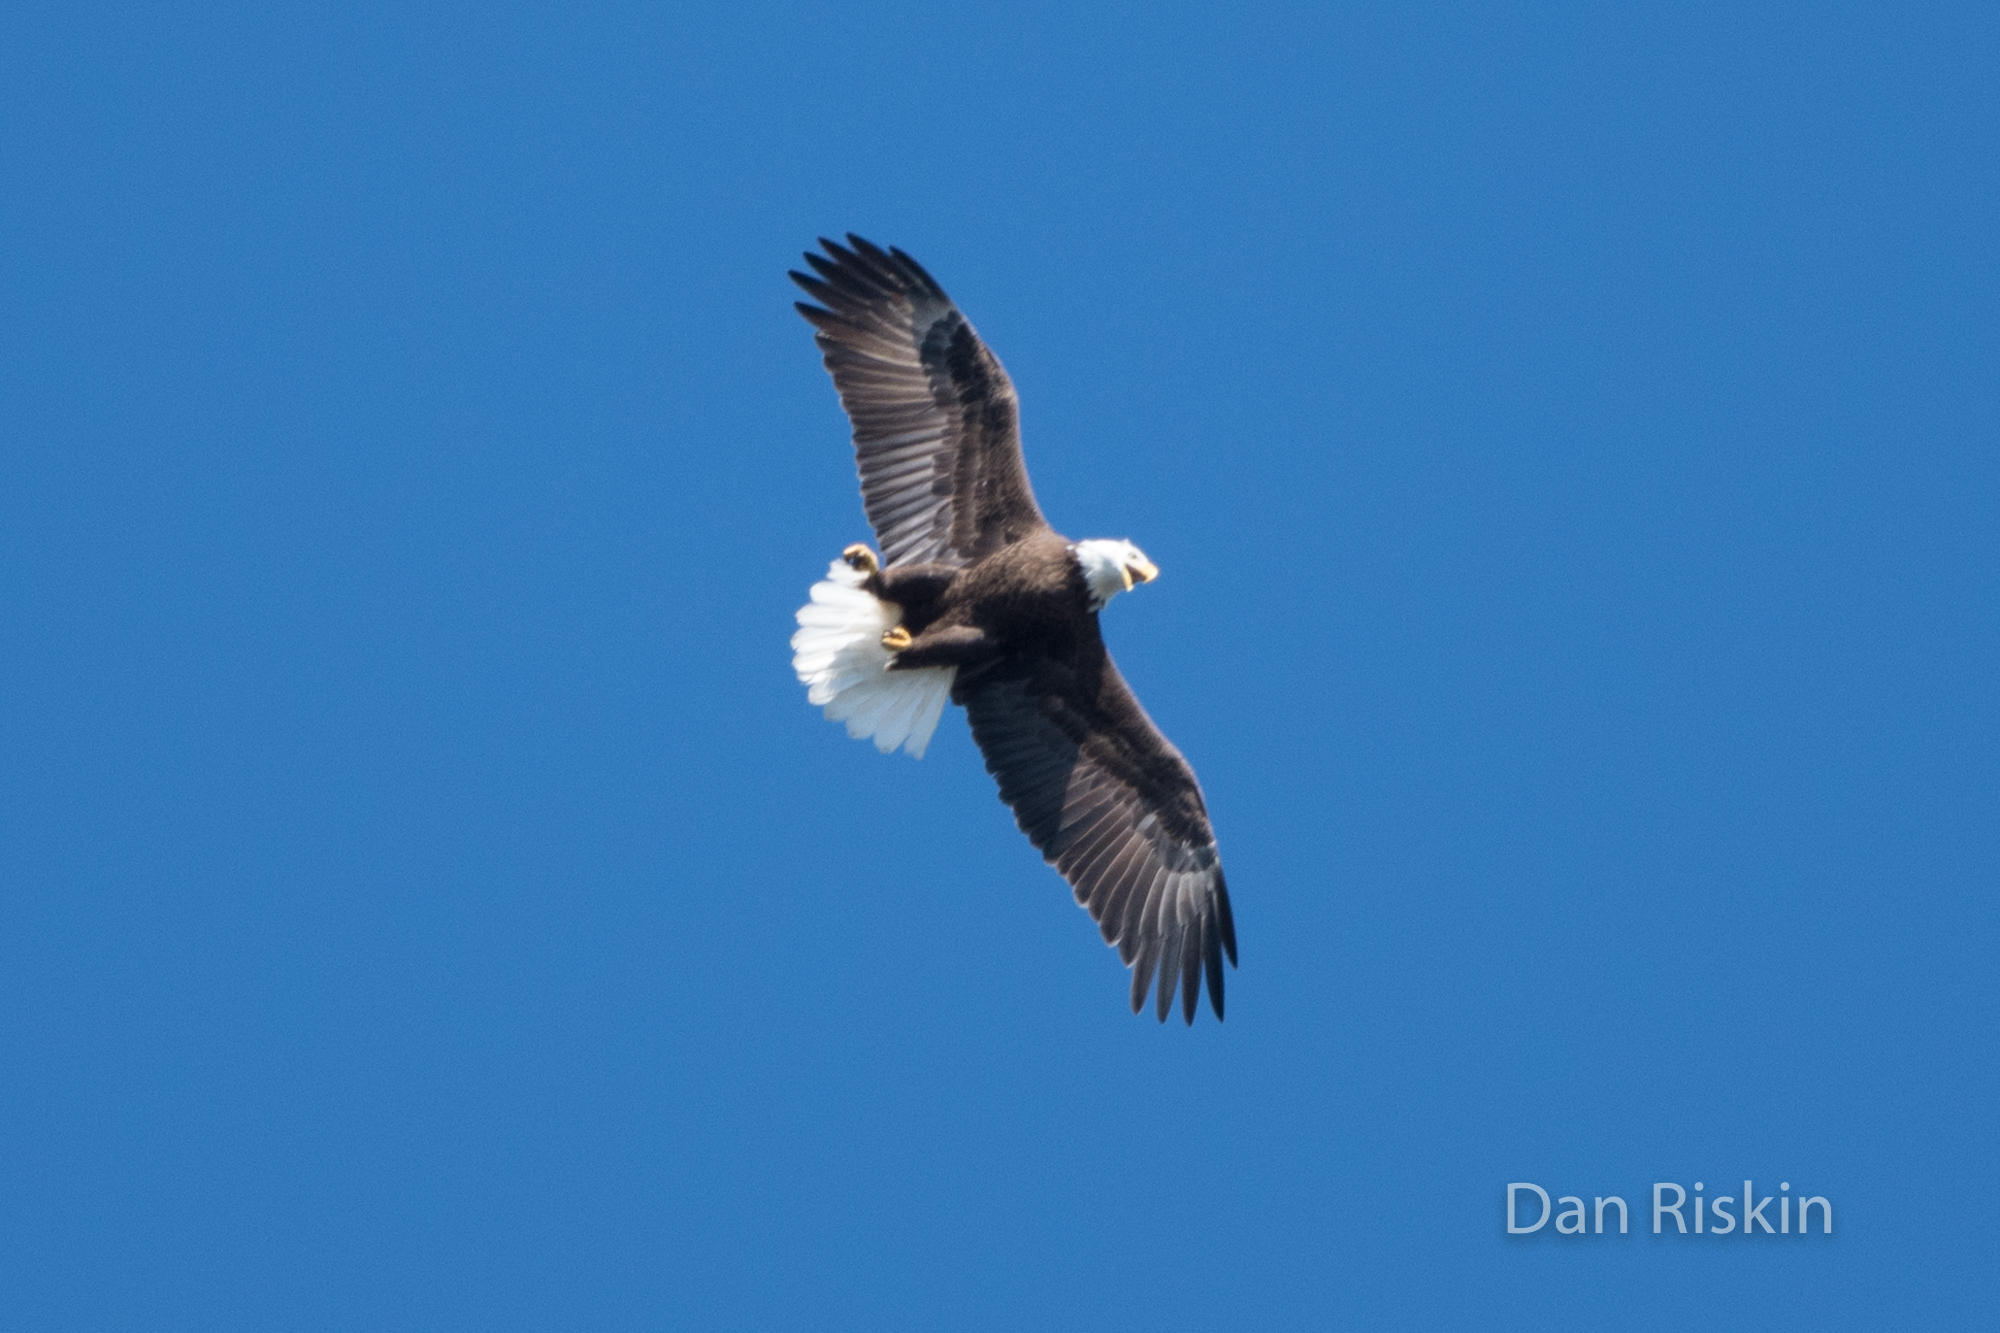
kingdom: Animalia
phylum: Chordata
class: Aves
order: Accipitriformes
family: Accipitridae
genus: Haliaeetus
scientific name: Haliaeetus leucocephalus
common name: Bald eagle
